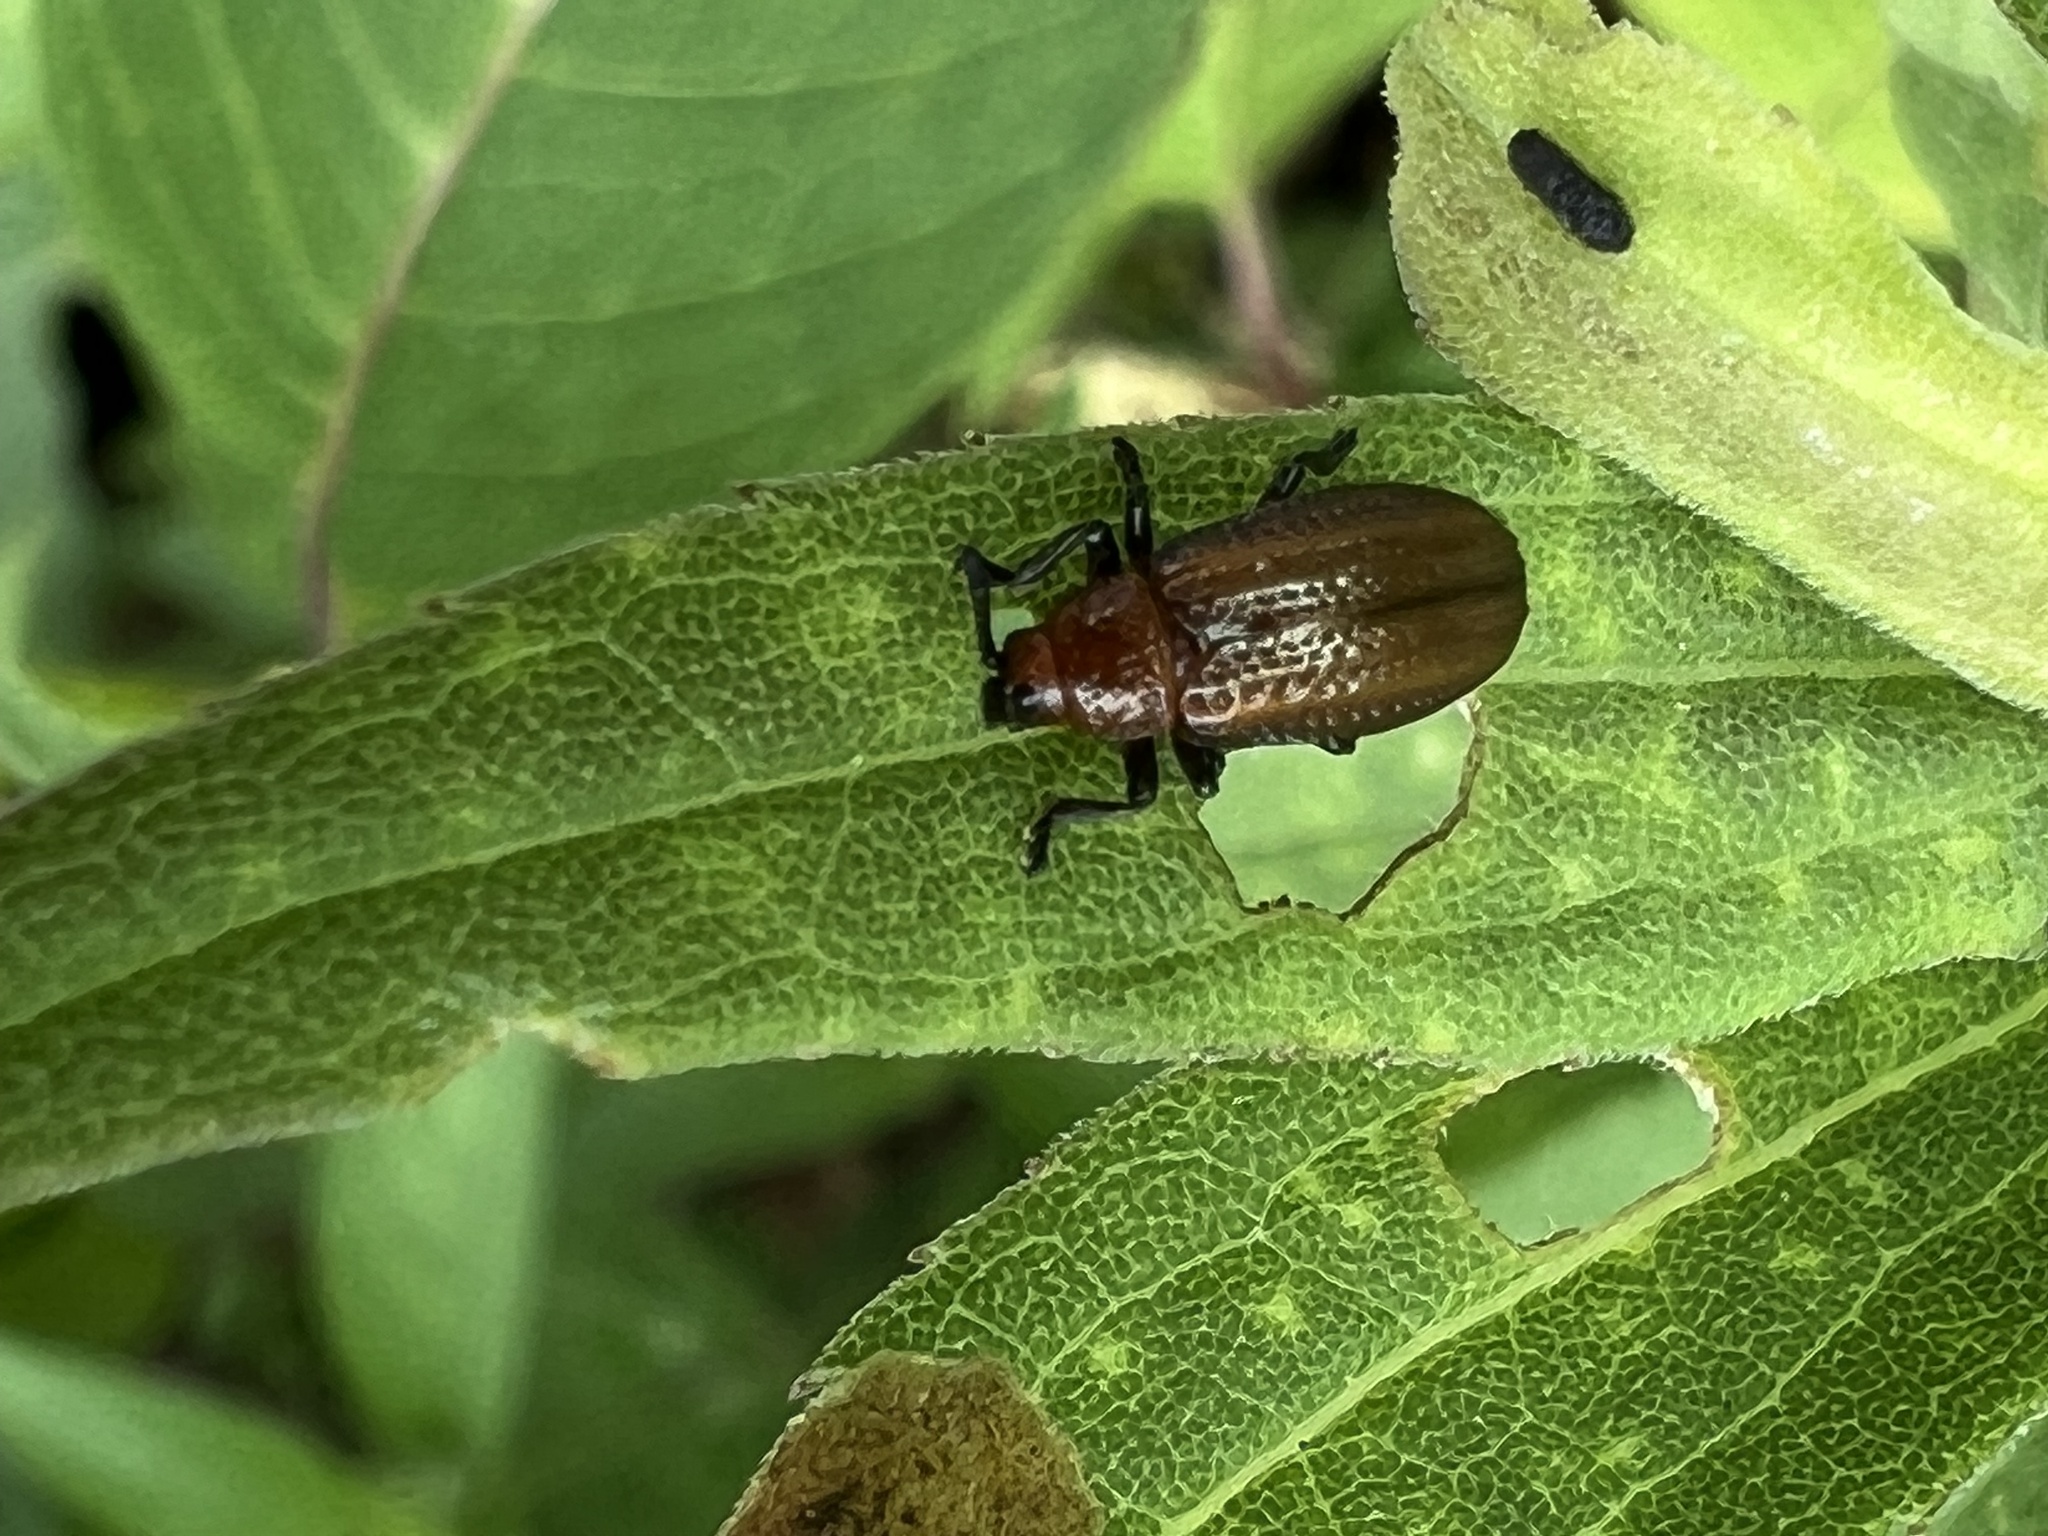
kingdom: Animalia
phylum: Arthropoda
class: Insecta
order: Coleoptera
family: Chrysomelidae
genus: Microrhopala
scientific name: Microrhopala vittata
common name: Goldenrod leaf miner beetle
